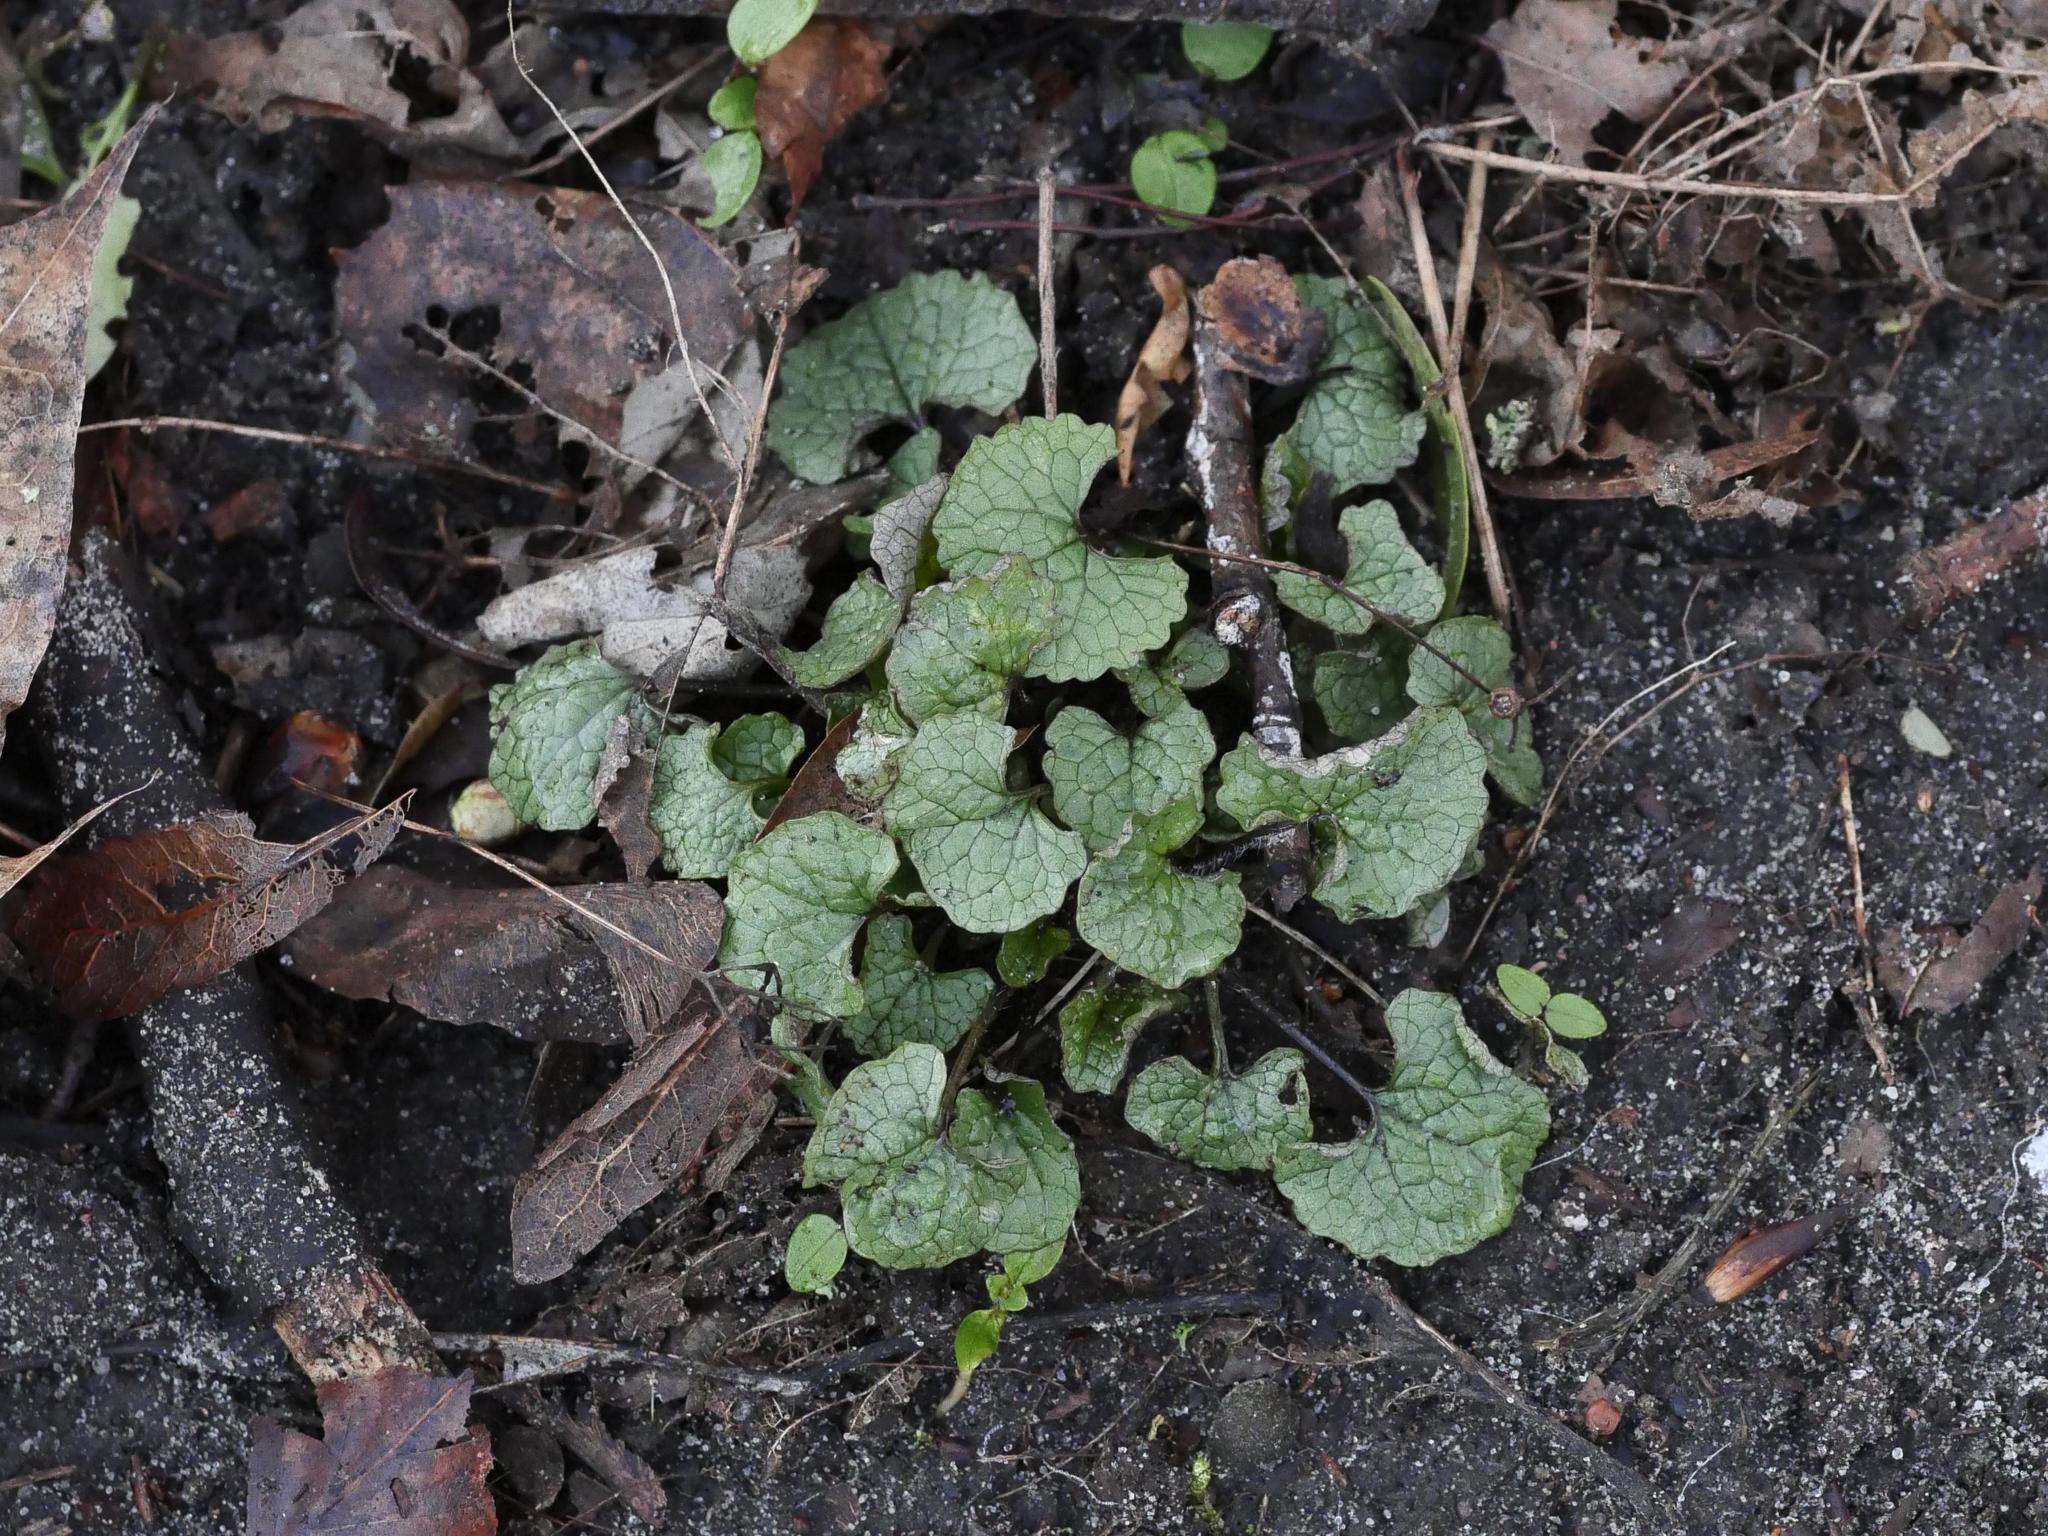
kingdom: Plantae
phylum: Tracheophyta
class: Magnoliopsida
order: Brassicales
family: Brassicaceae
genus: Alliaria
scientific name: Alliaria petiolata
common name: Garlic mustard
